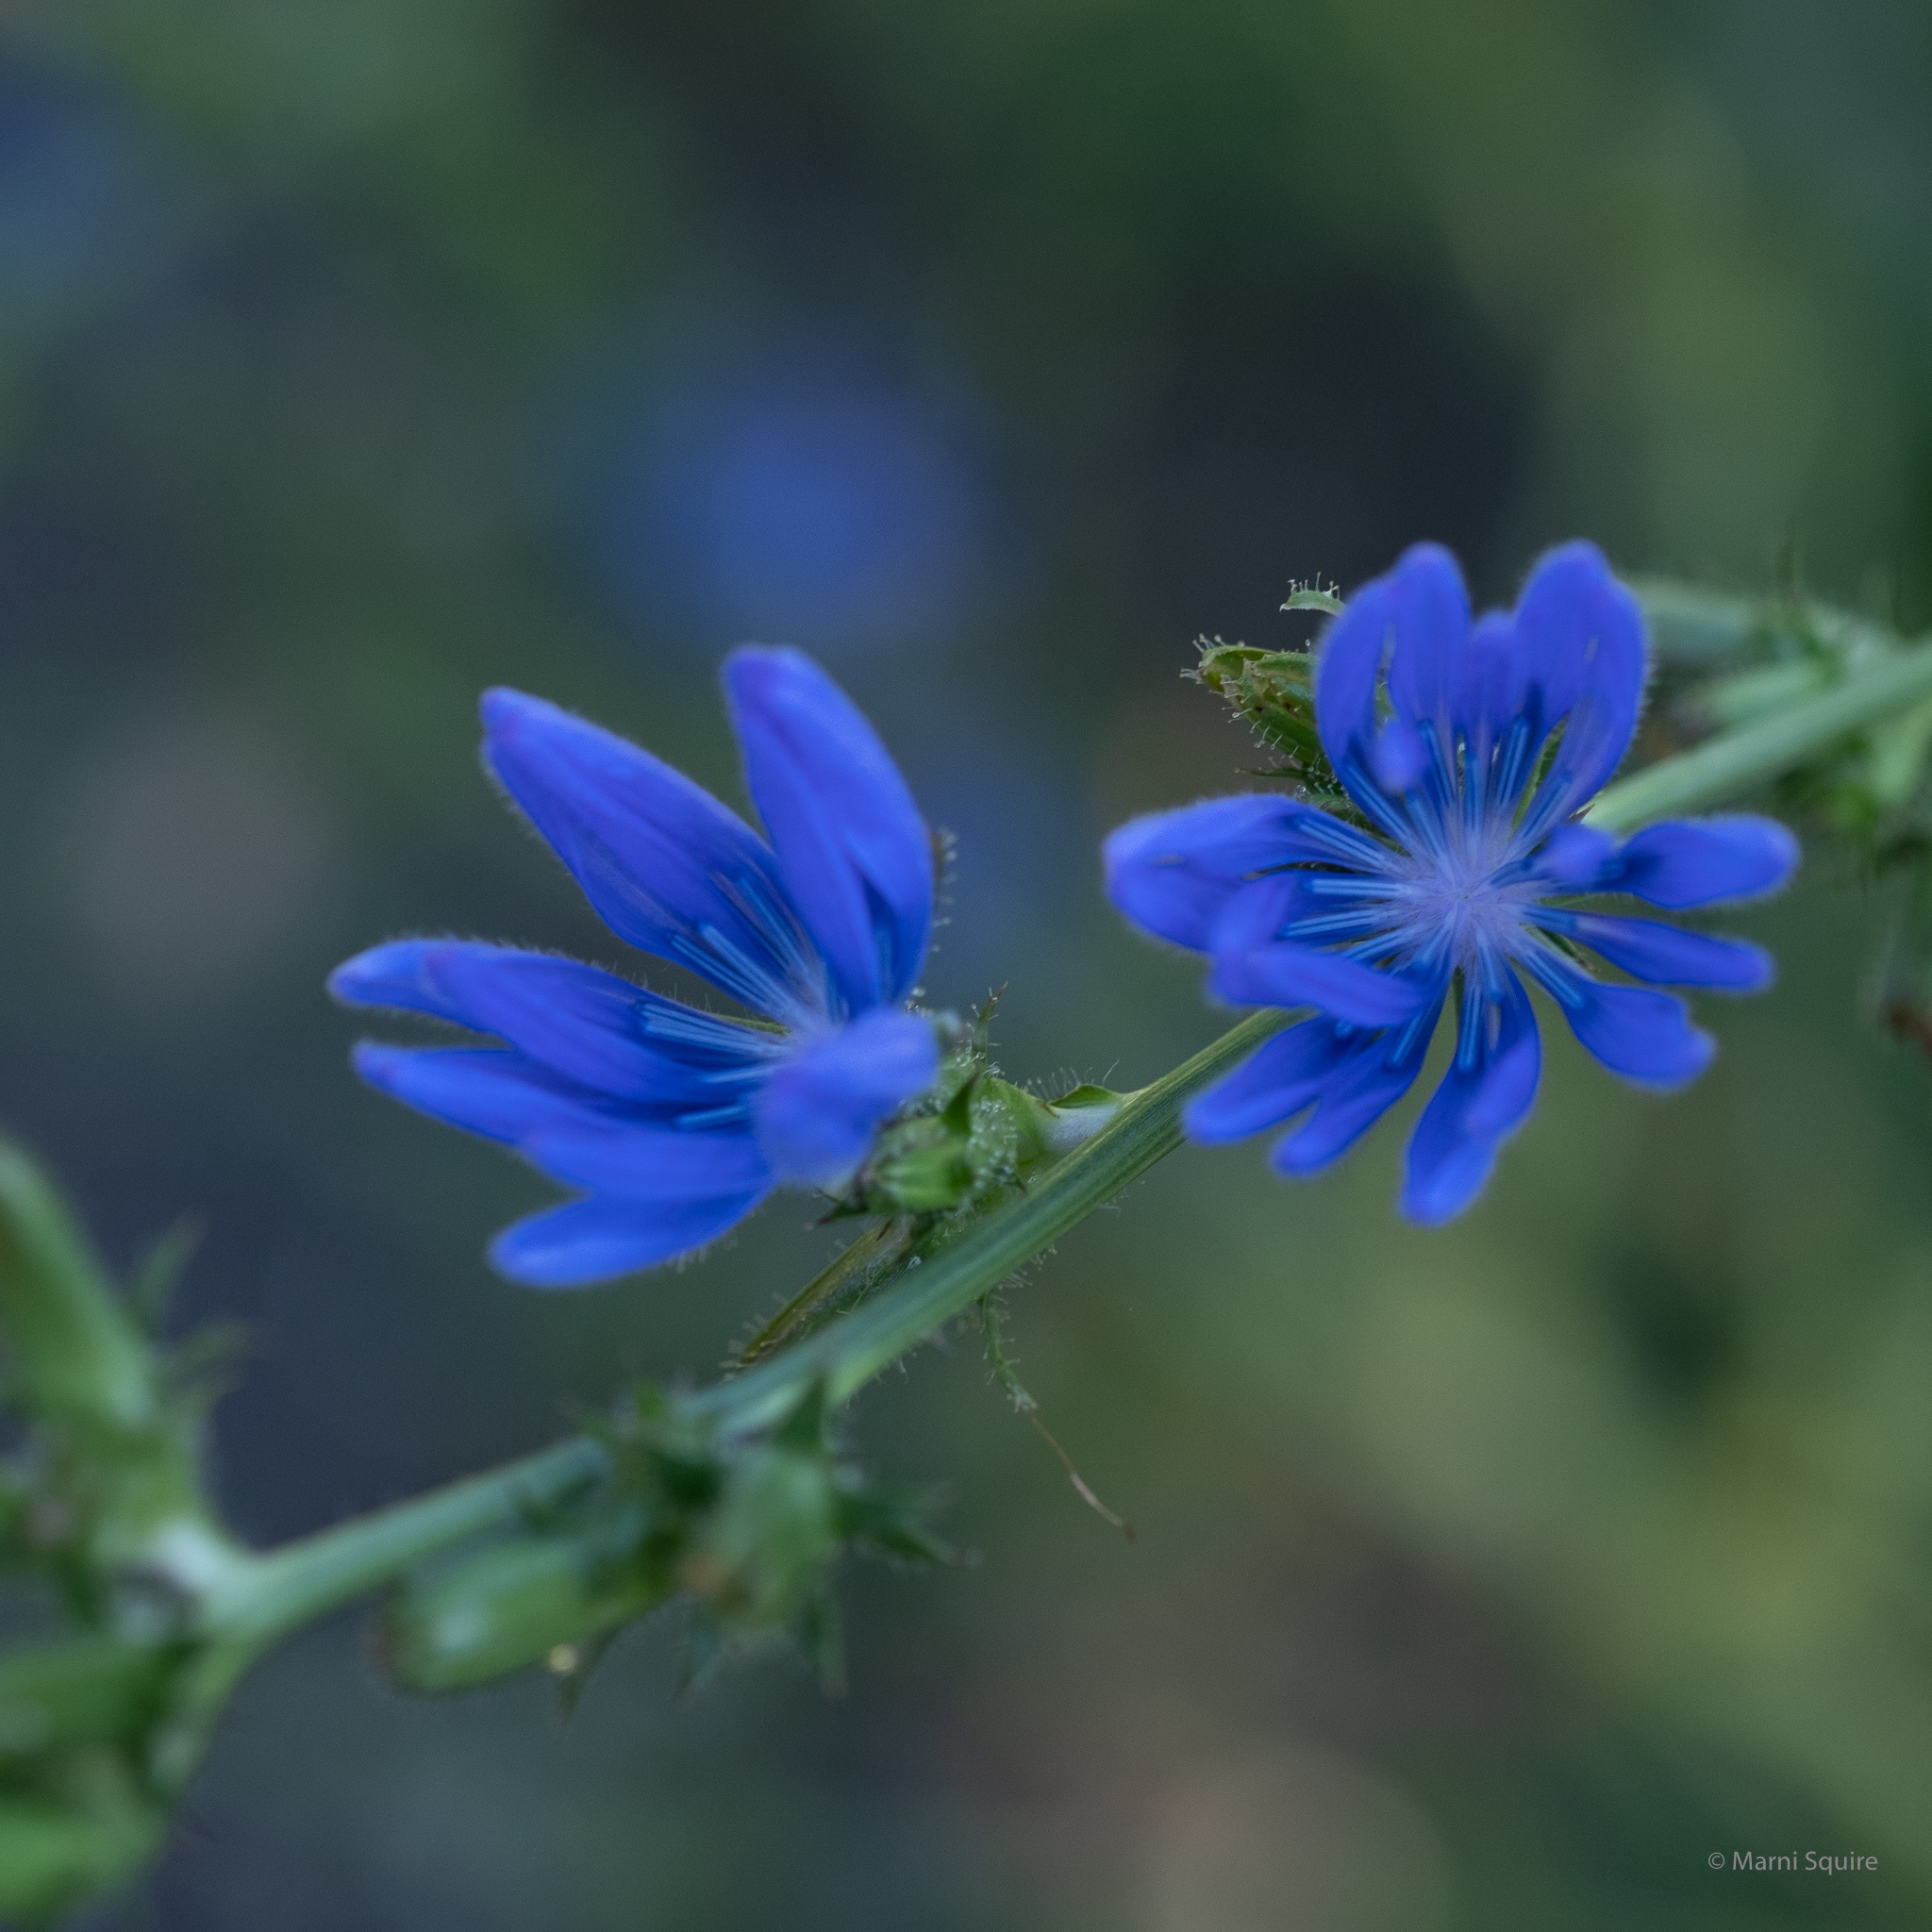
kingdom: Plantae
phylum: Tracheophyta
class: Magnoliopsida
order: Asterales
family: Asteraceae
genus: Cichorium
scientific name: Cichorium intybus
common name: Chicory
